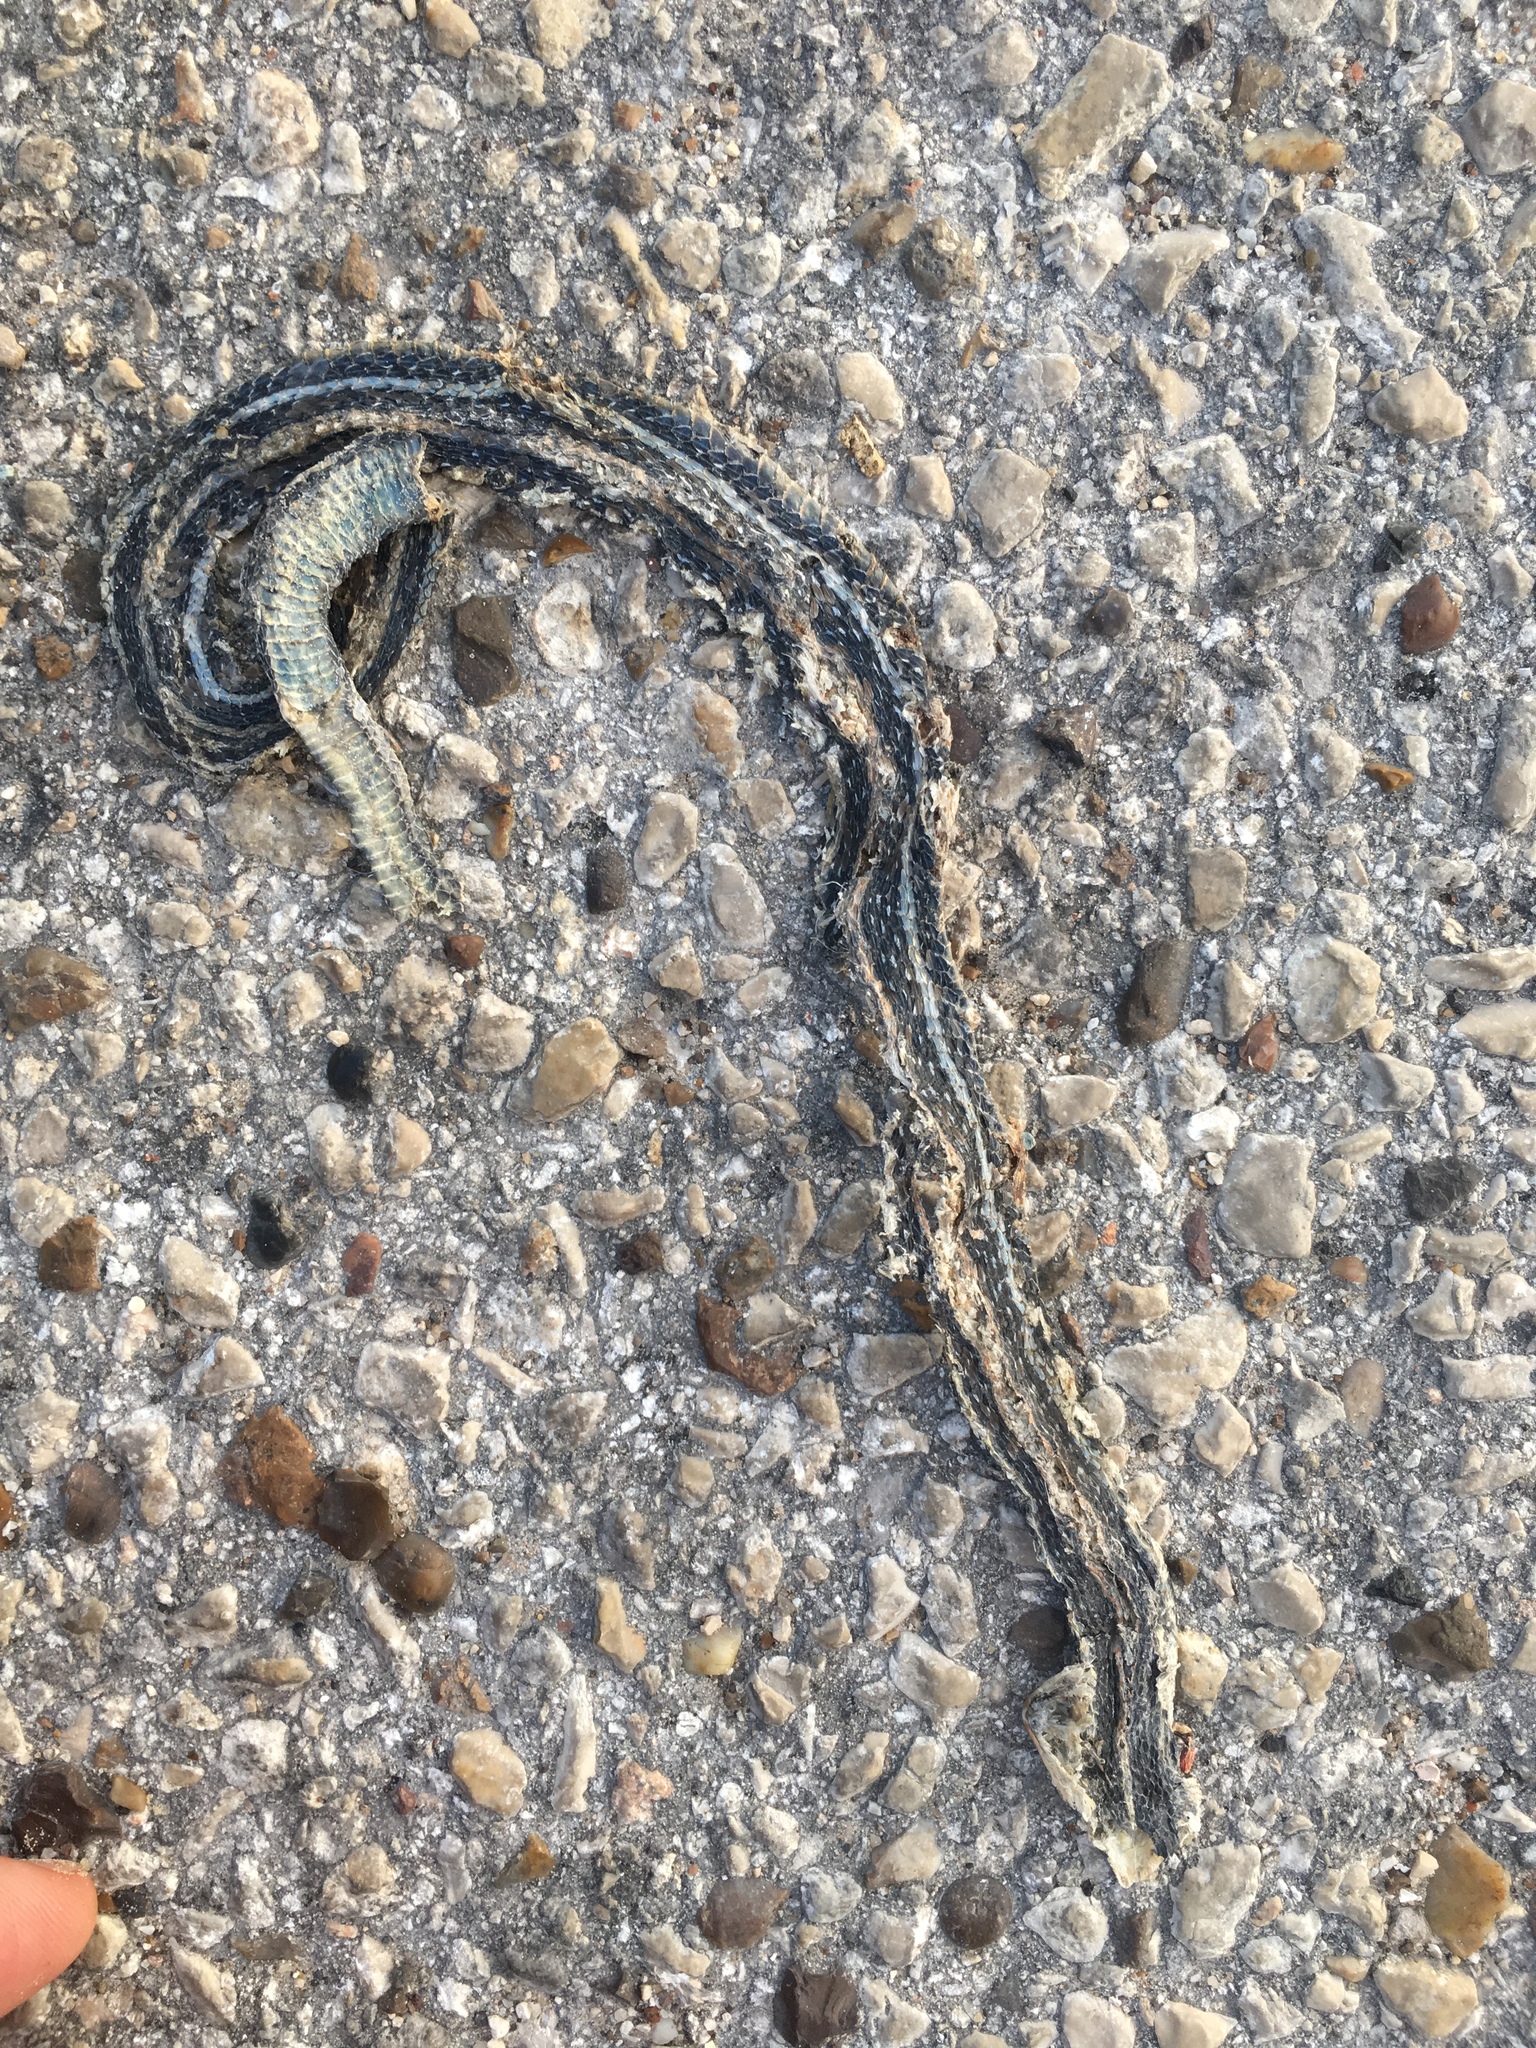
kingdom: Animalia
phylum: Chordata
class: Squamata
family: Colubridae
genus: Thamnophis
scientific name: Thamnophis proximus
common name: Western ribbon snake
